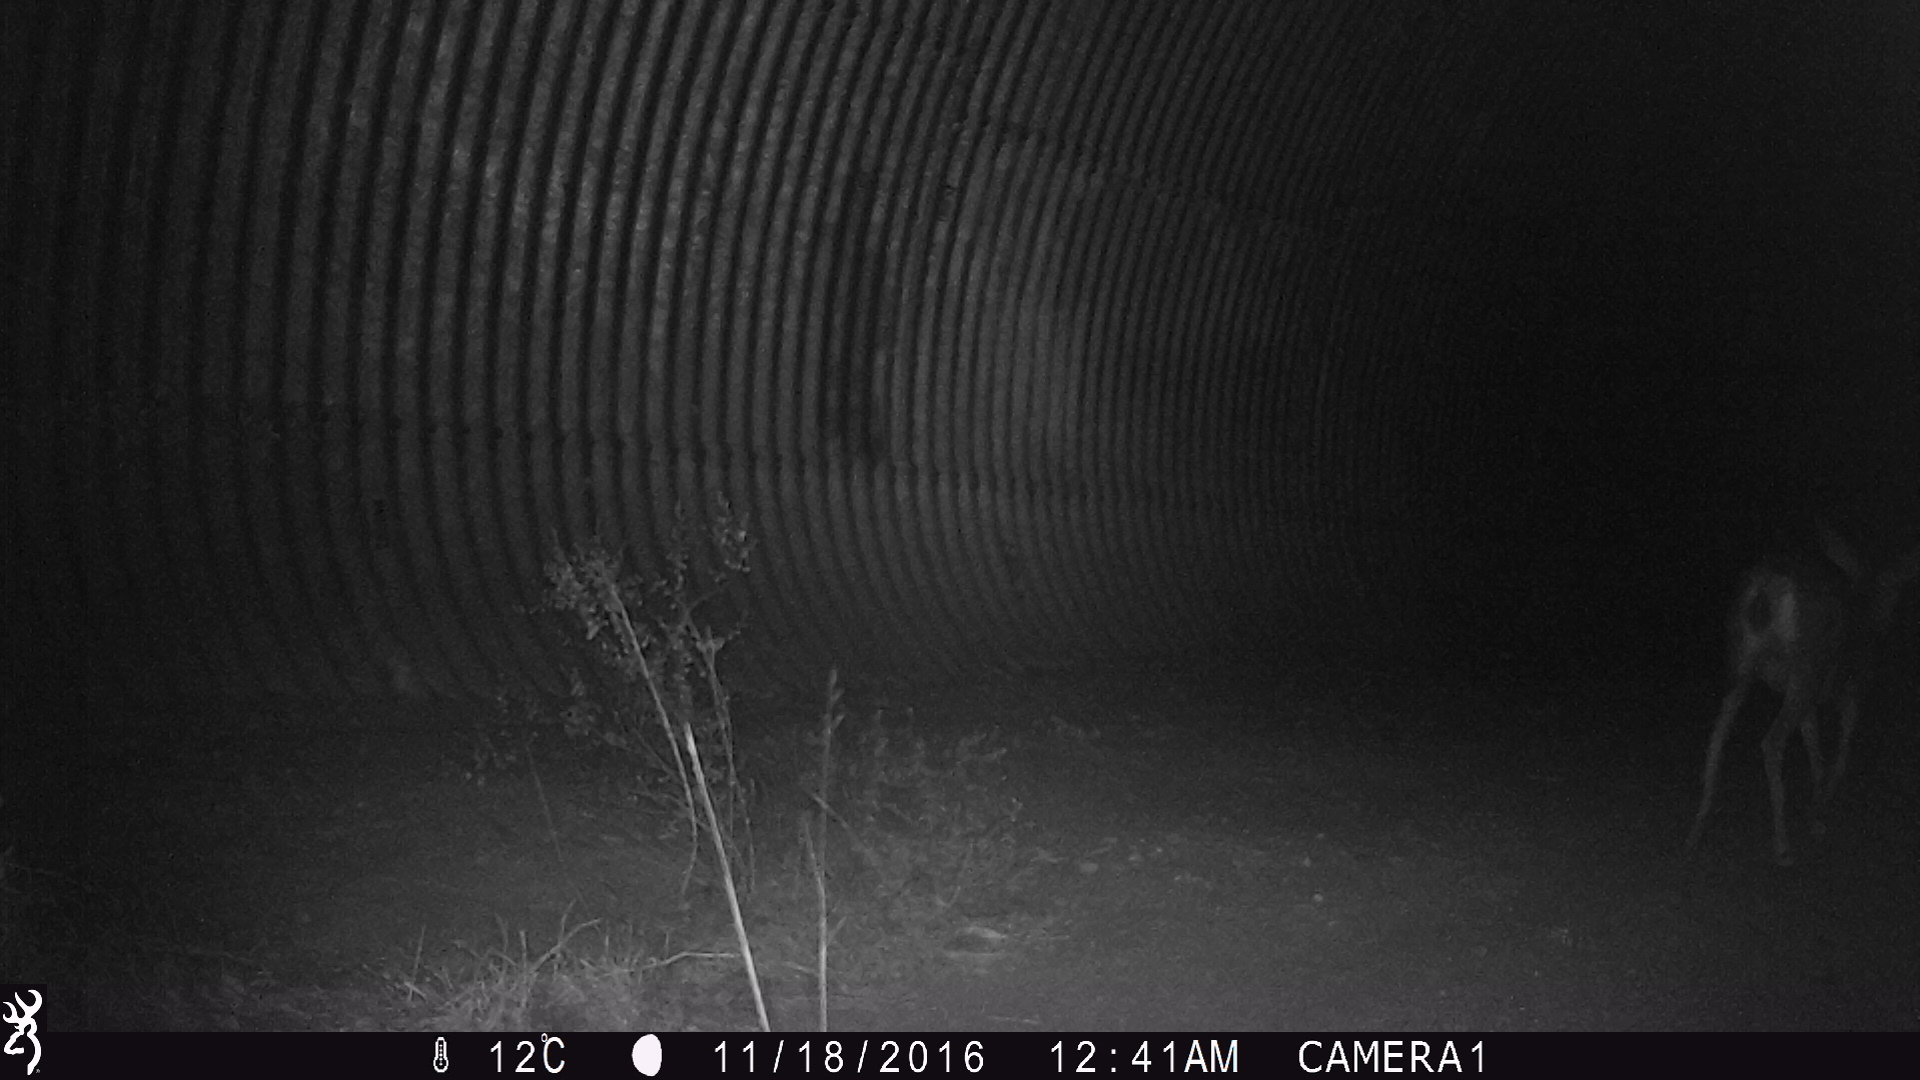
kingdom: Animalia
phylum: Chordata
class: Mammalia
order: Artiodactyla
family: Cervidae
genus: Odocoileus
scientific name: Odocoileus hemionus
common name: Mule deer
